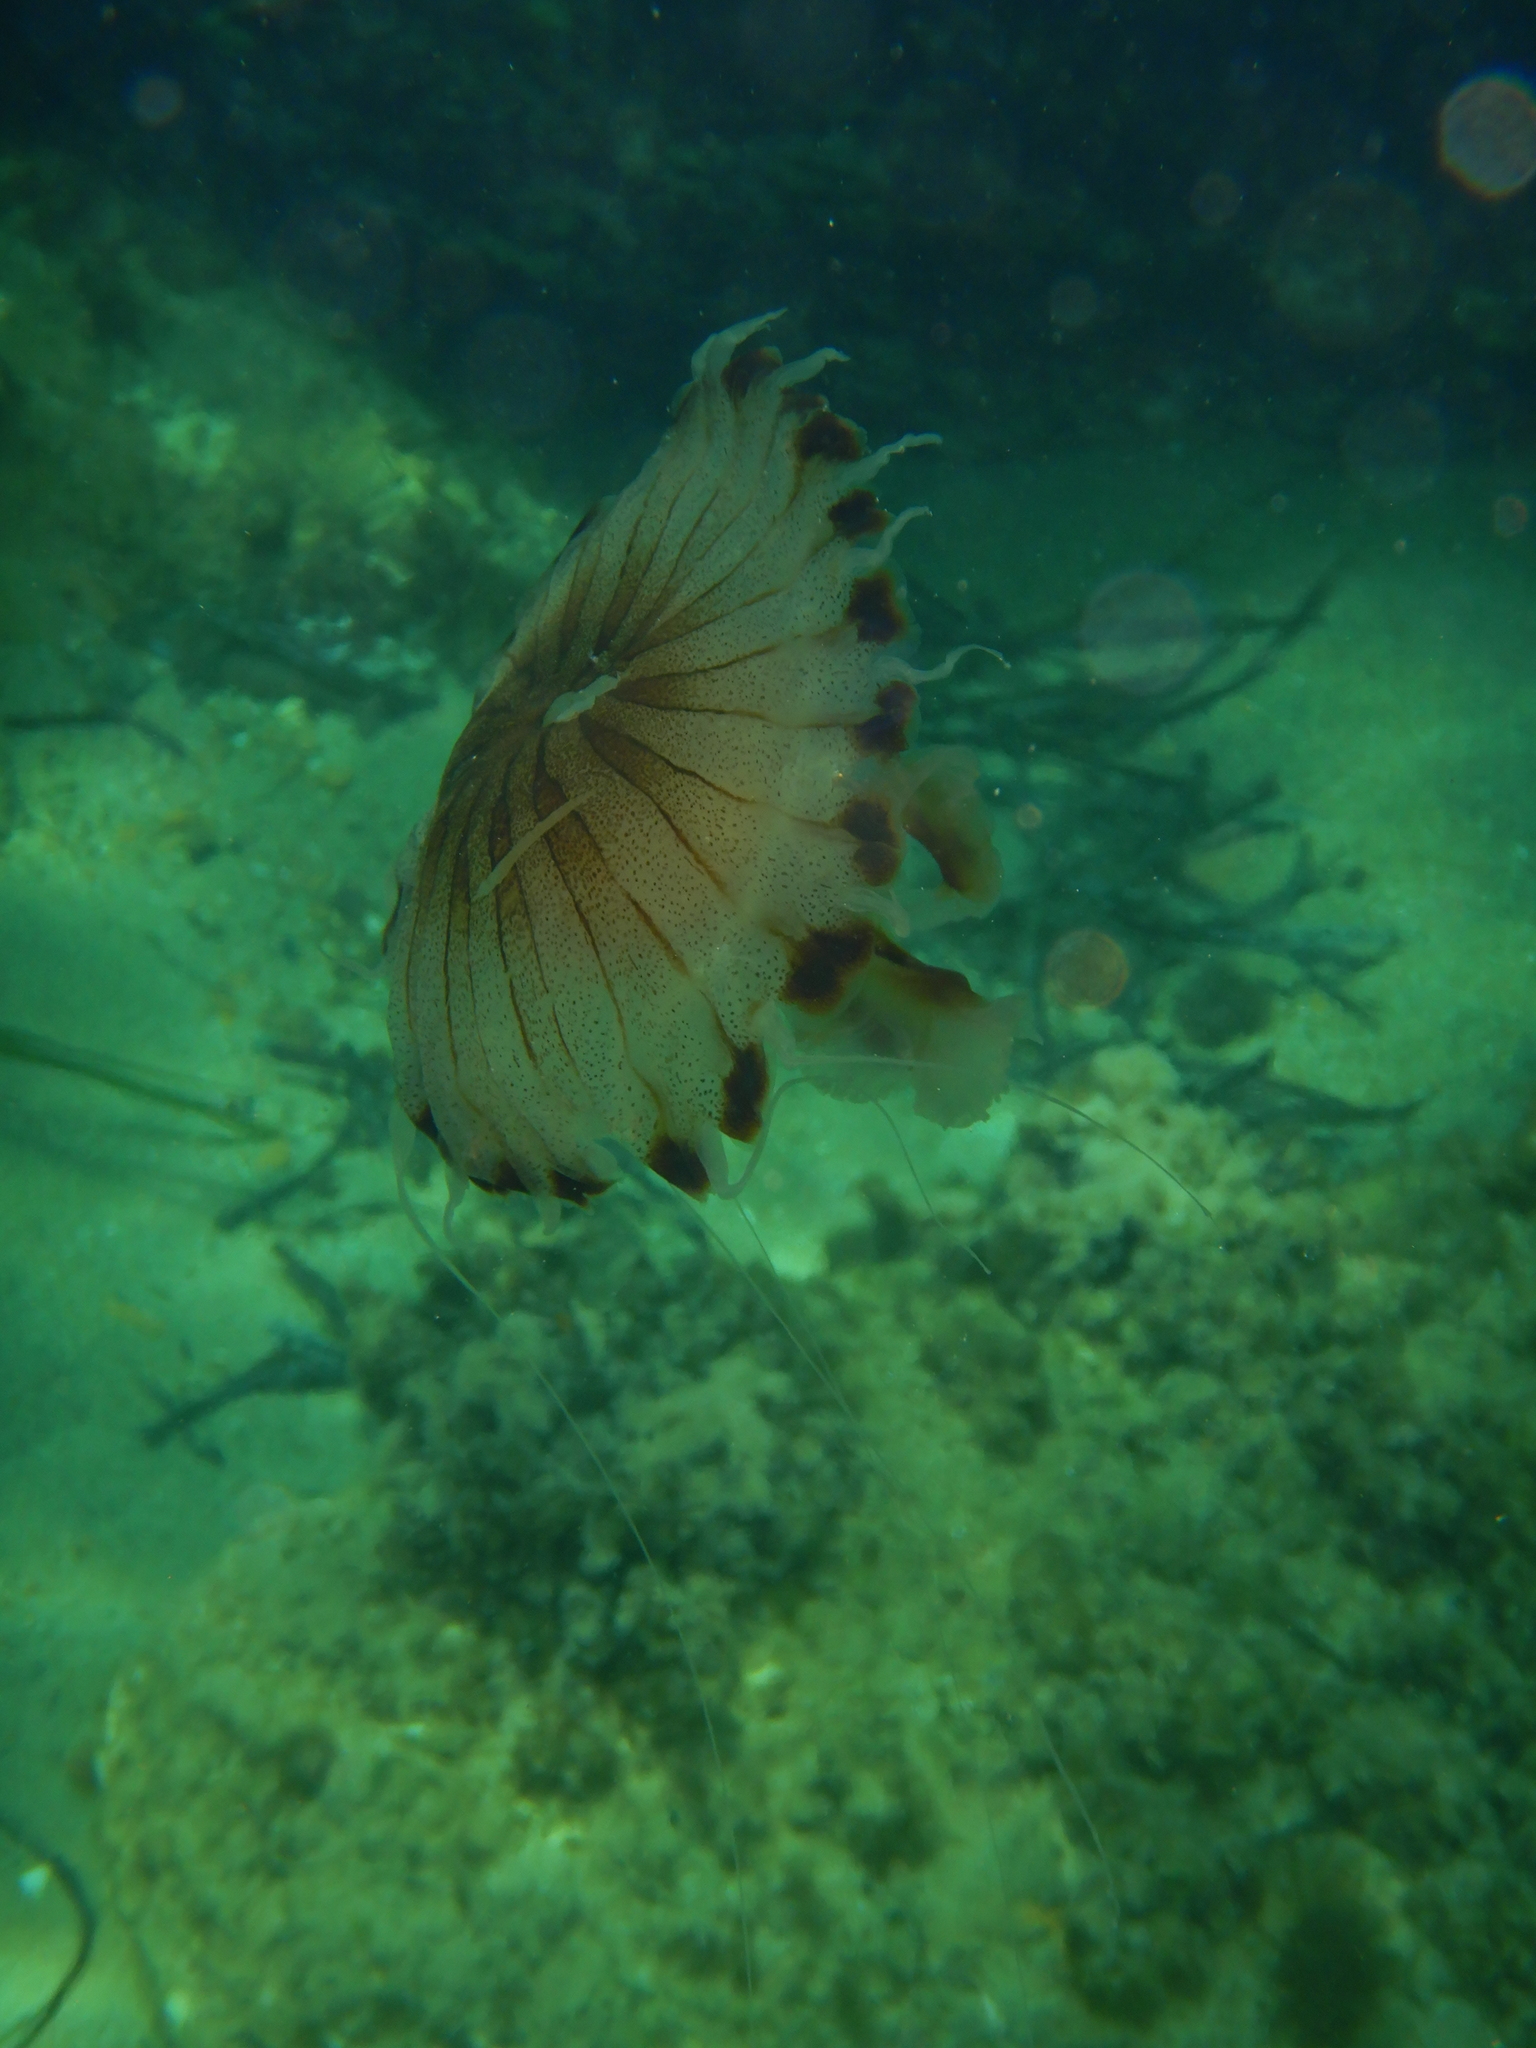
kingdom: Animalia
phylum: Cnidaria
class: Scyphozoa
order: Semaeostomeae
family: Pelagiidae
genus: Chrysaora
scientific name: Chrysaora hysoscella
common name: Compass jellyfish
